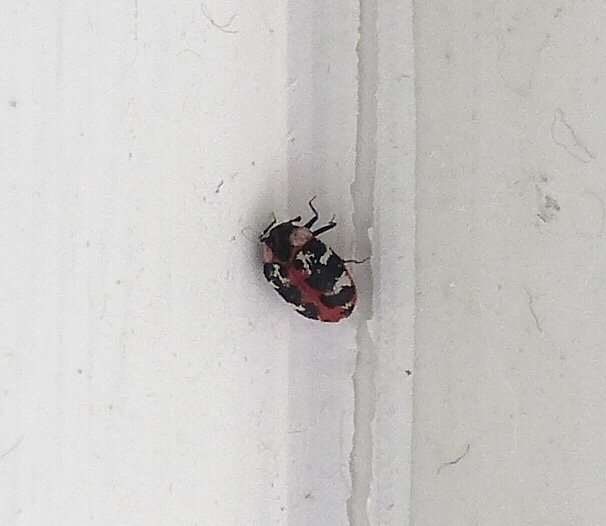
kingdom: Animalia
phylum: Arthropoda
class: Insecta
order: Coleoptera
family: Dermestidae
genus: Anthrenus
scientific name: Anthrenus scrophulariae
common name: Buffalo carpet beetle
